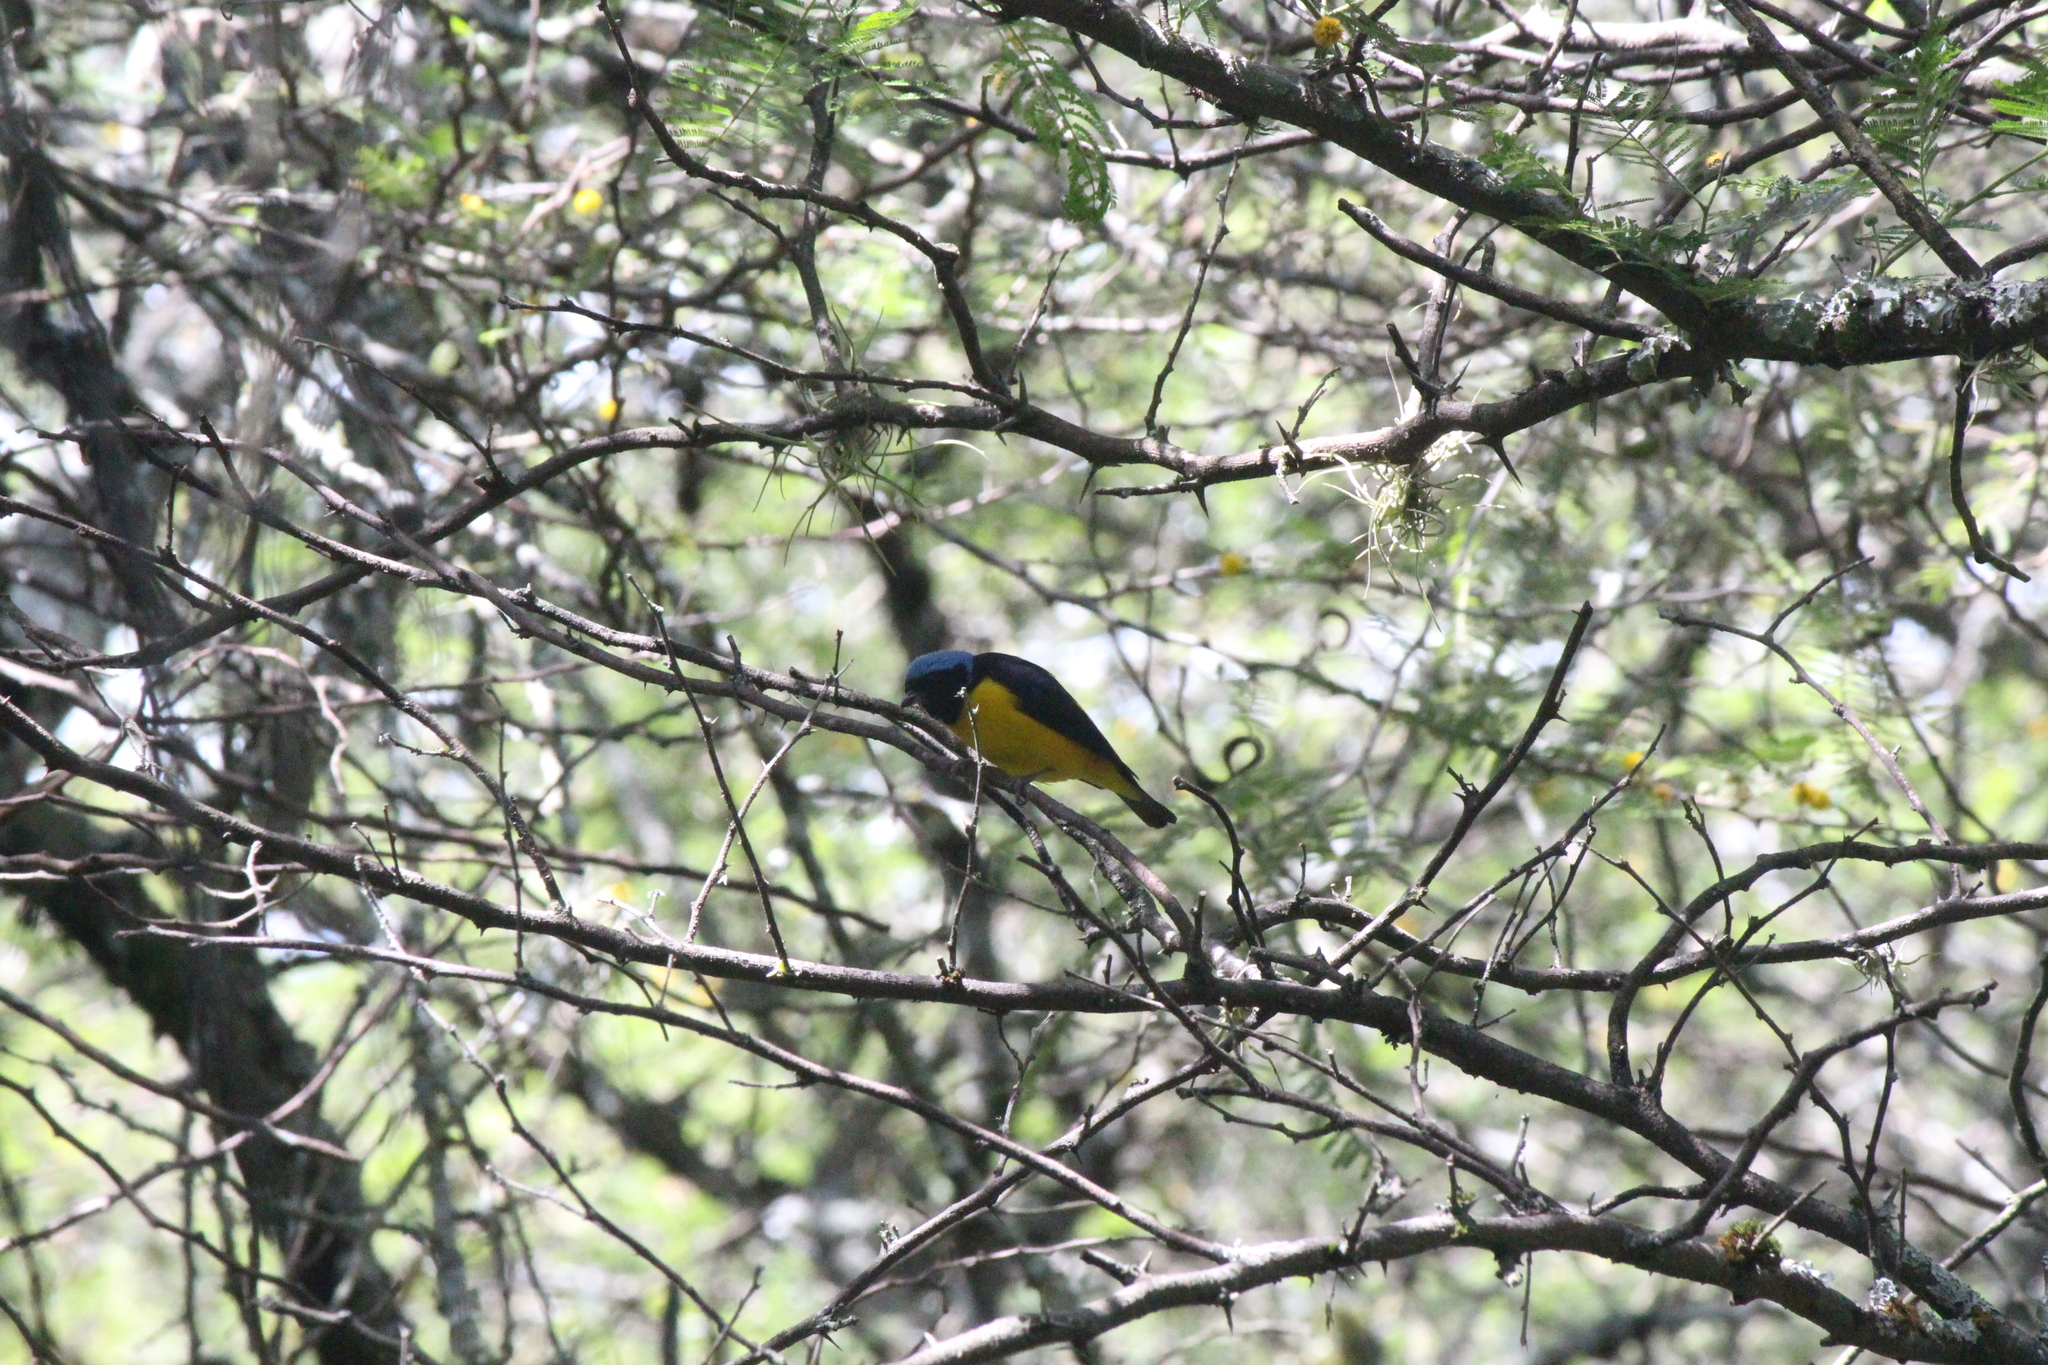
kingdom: Animalia
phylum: Chordata
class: Aves
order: Passeriformes
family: Fringillidae
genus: Euphonia
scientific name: Euphonia cyanocephala
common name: Golden-rumped euphonia
